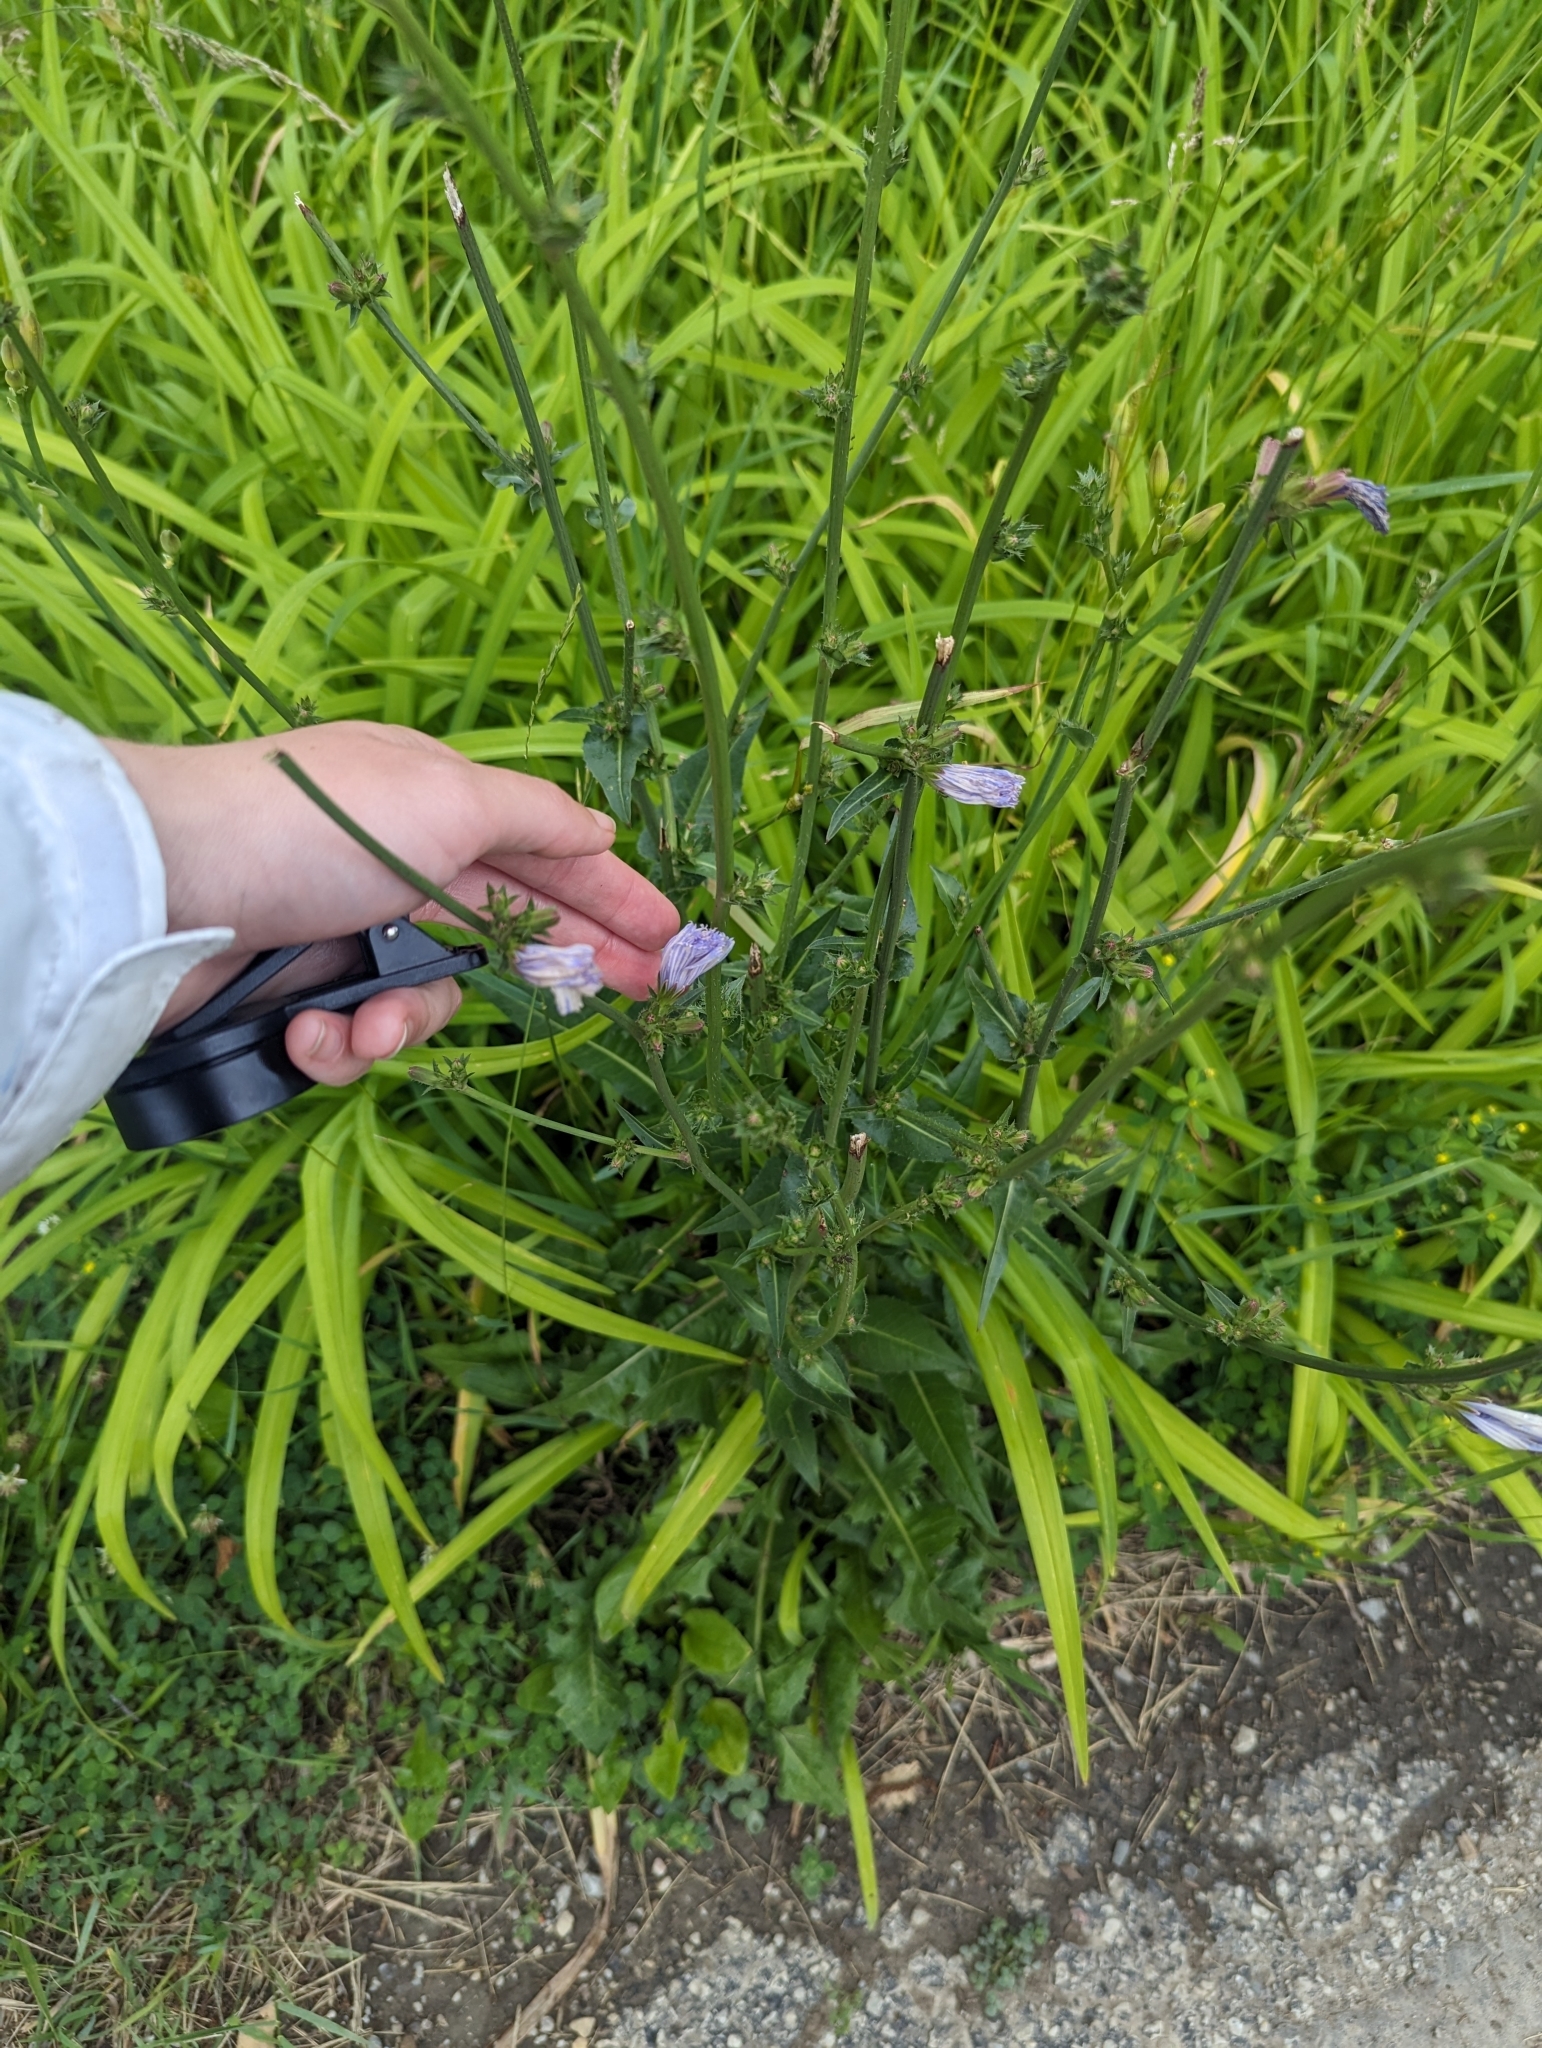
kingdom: Plantae
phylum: Tracheophyta
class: Magnoliopsida
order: Asterales
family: Asteraceae
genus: Cichorium
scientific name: Cichorium intybus
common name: Chicory
